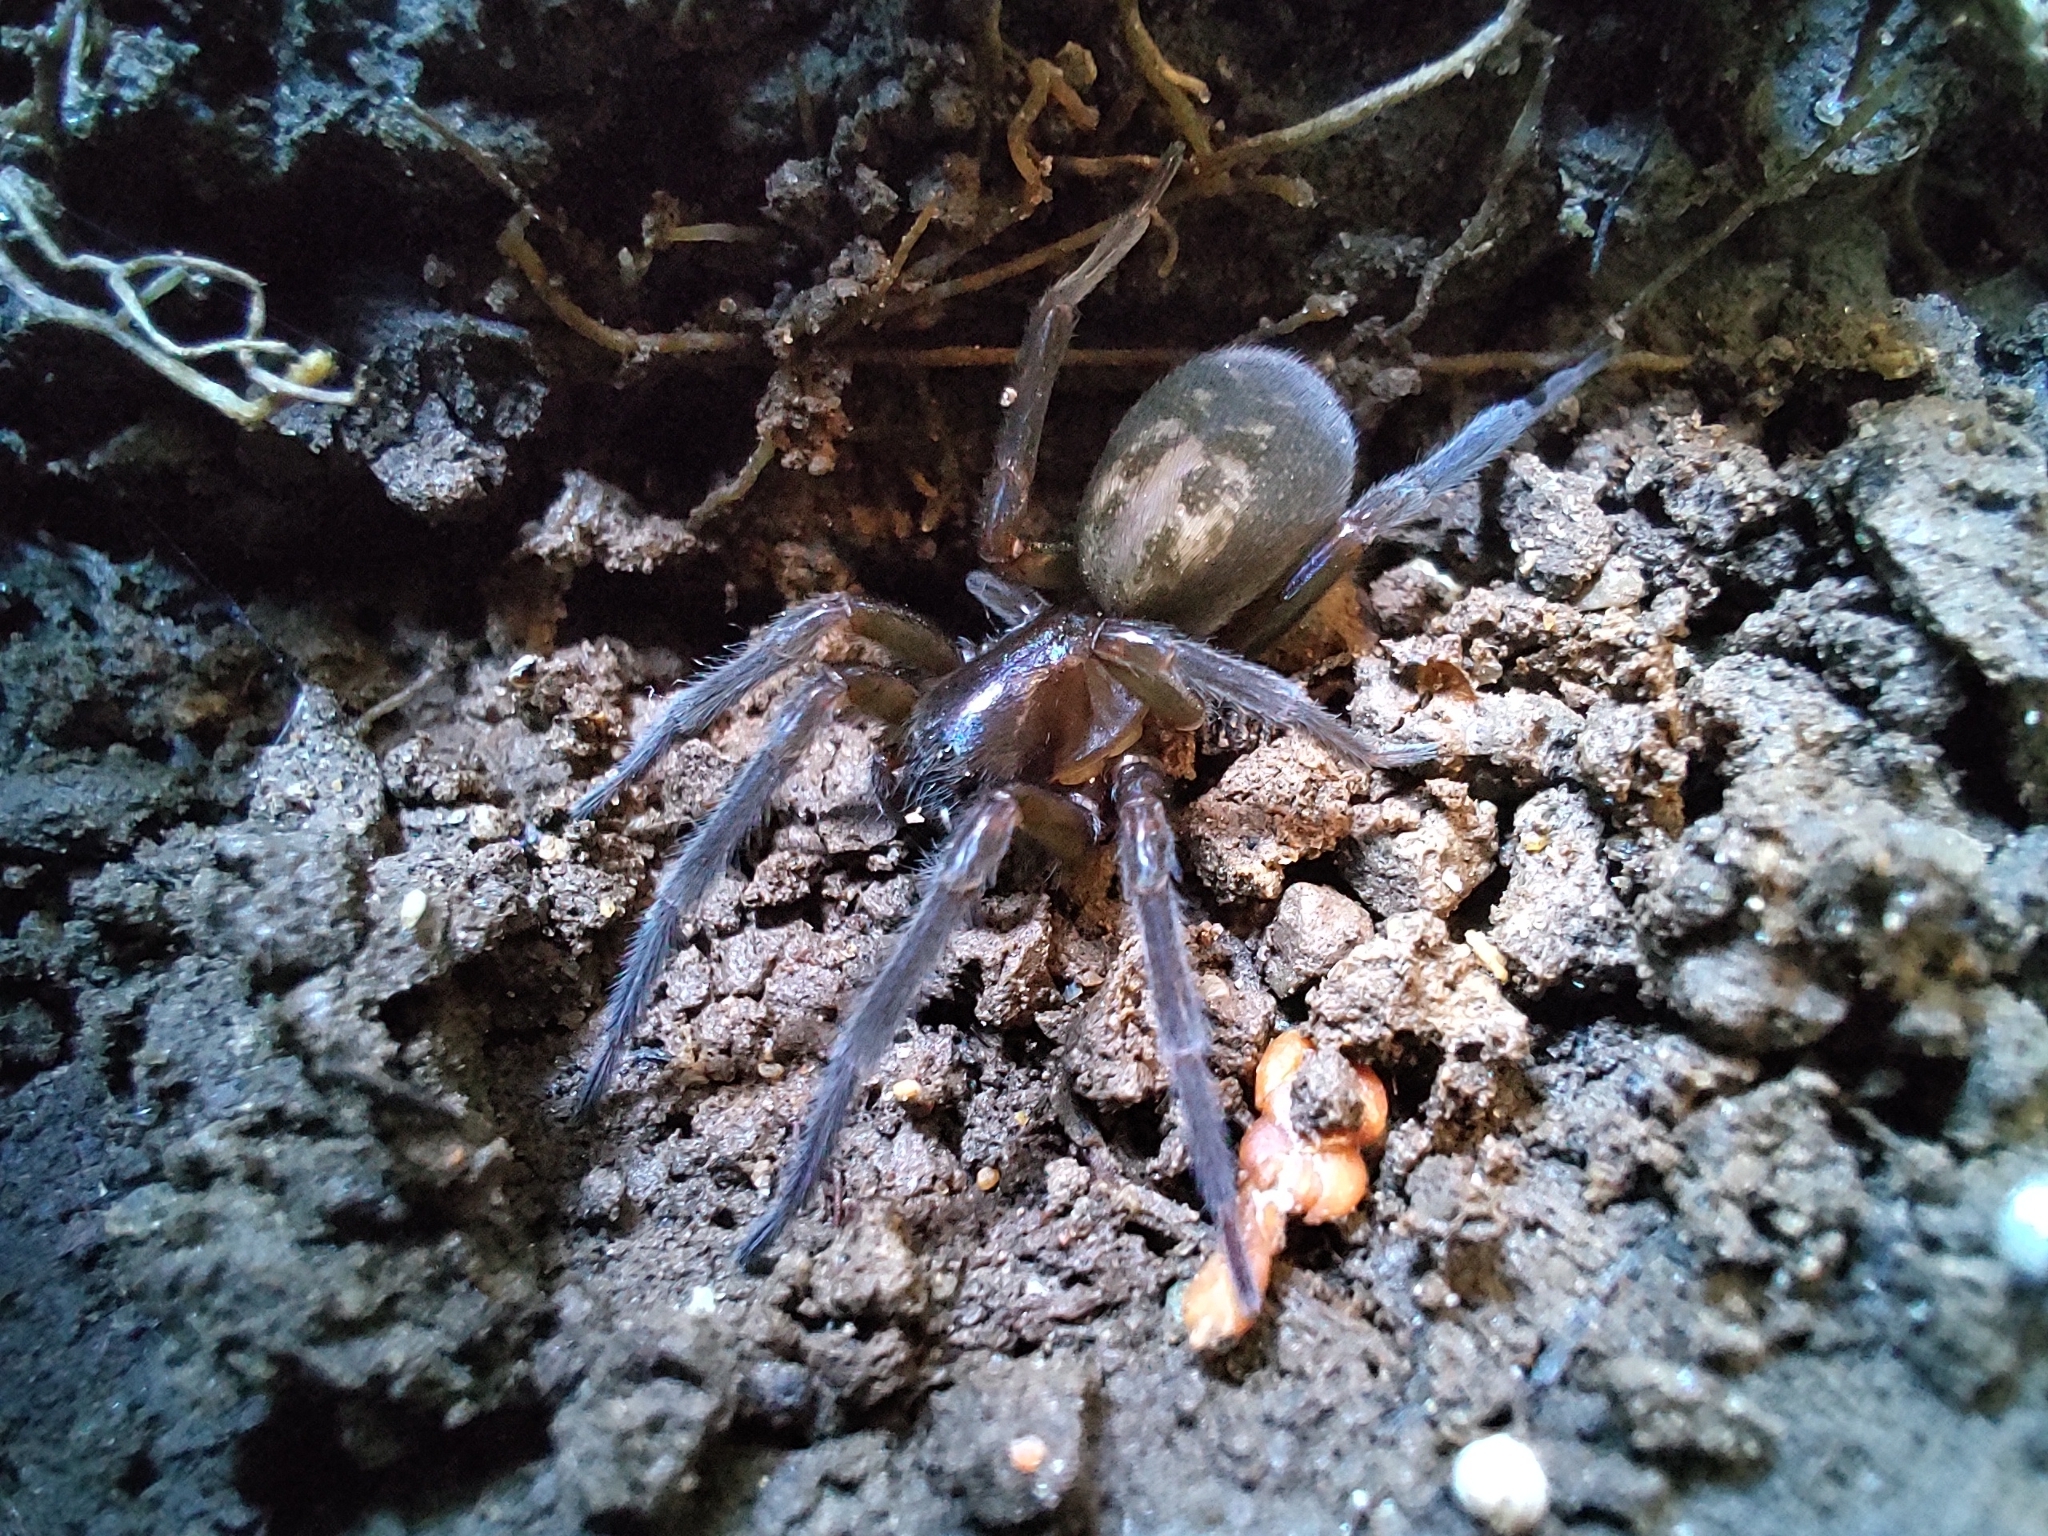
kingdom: Animalia
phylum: Arthropoda
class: Arachnida
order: Araneae
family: Amaurobiidae
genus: Amaurobius
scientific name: Amaurobius ferox
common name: Black laceweaver
